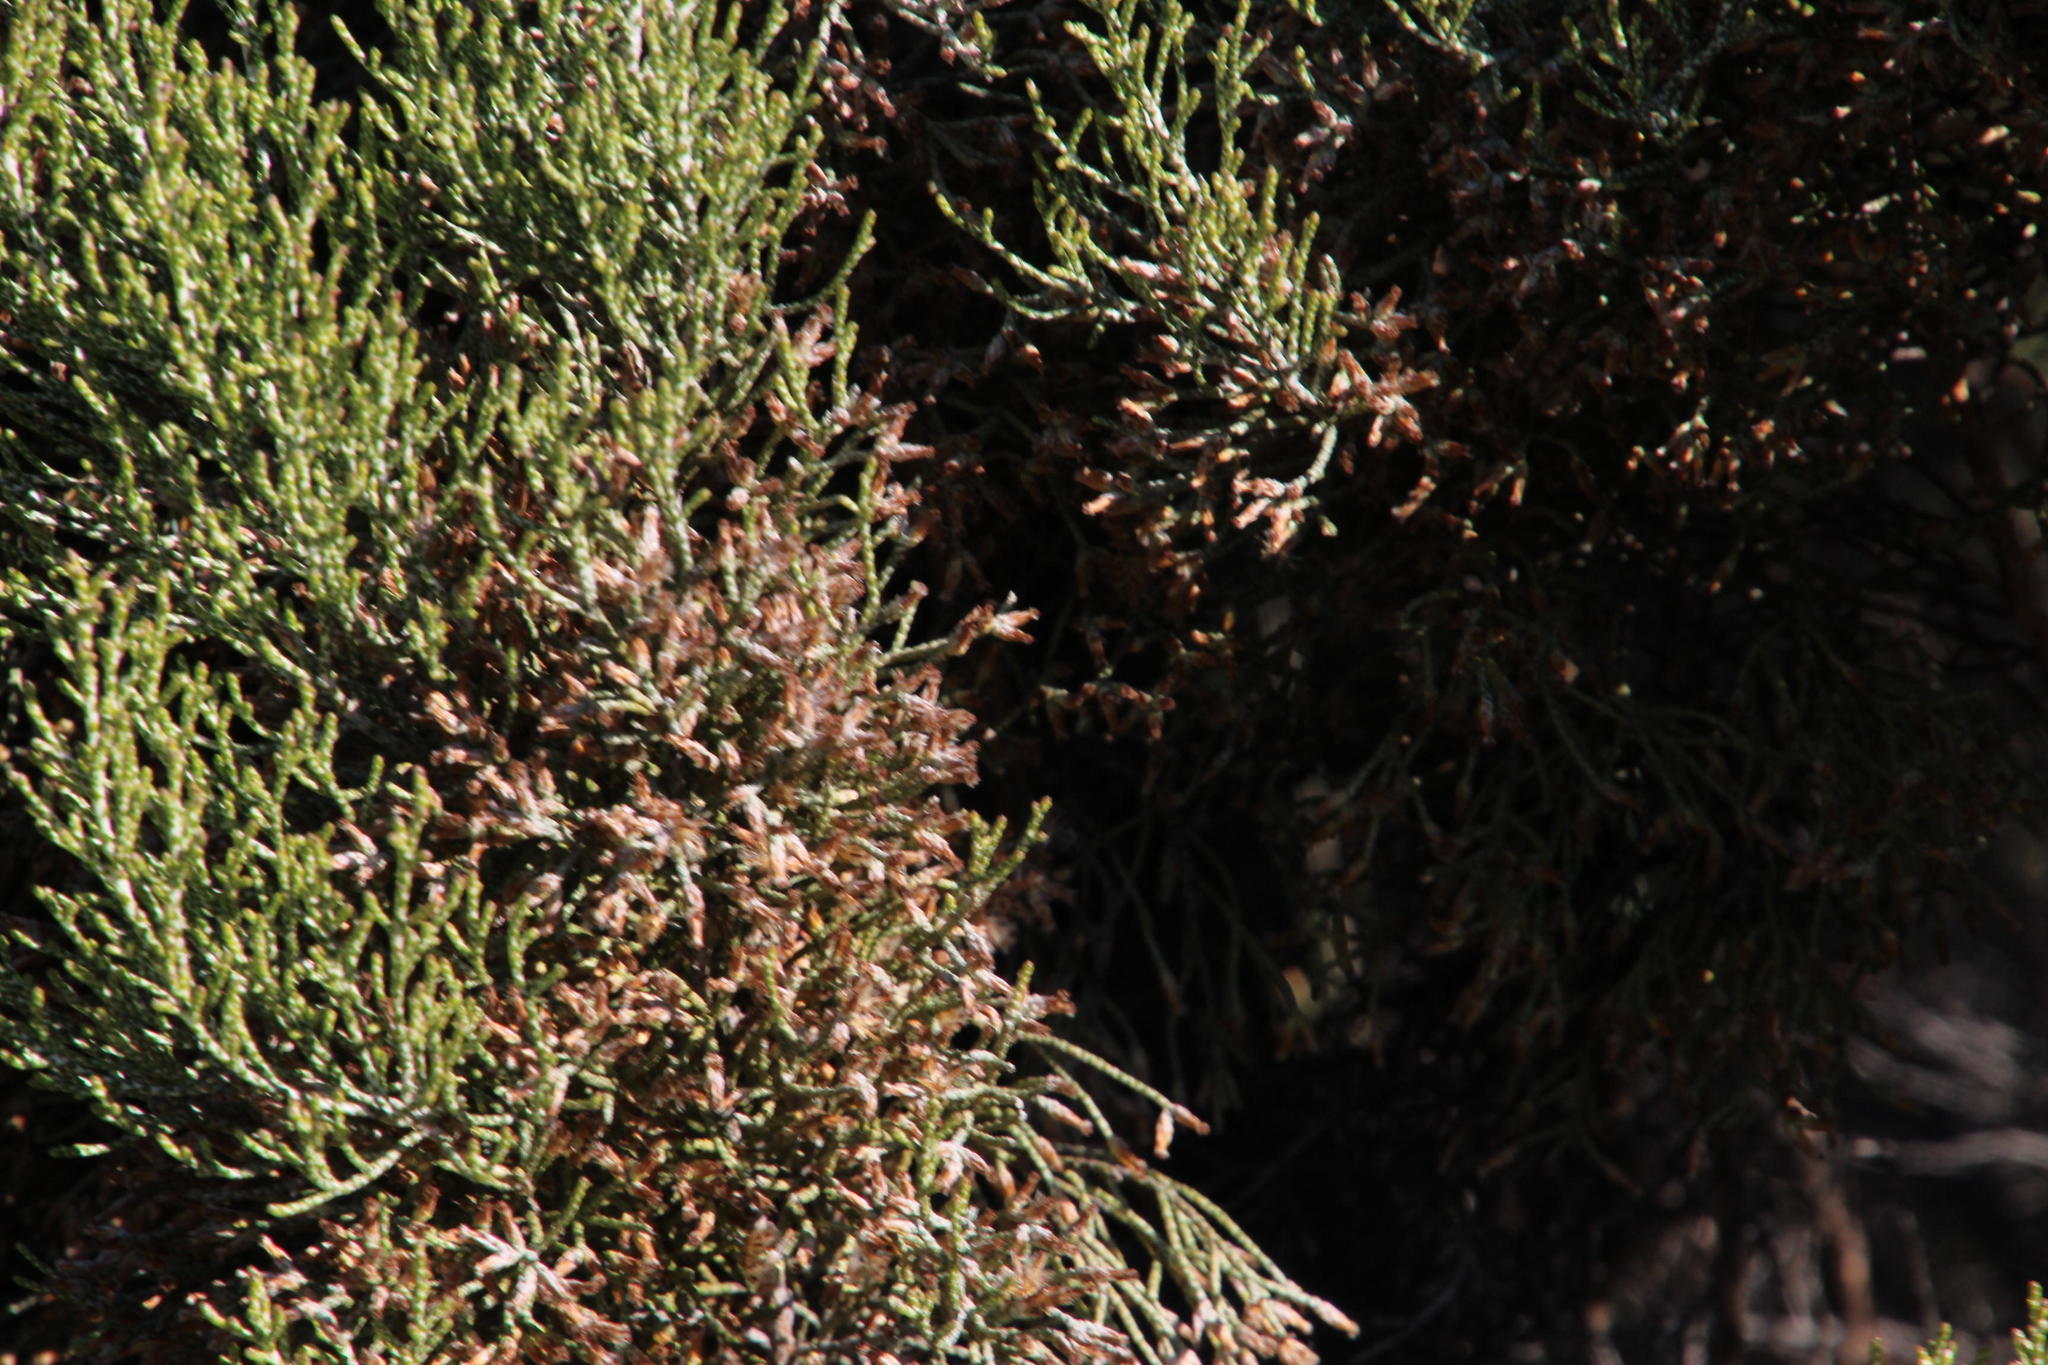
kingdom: Plantae
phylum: Tracheophyta
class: Magnoliopsida
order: Asterales
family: Asteraceae
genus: Dicerothamnus
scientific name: Dicerothamnus rhinocerotis
